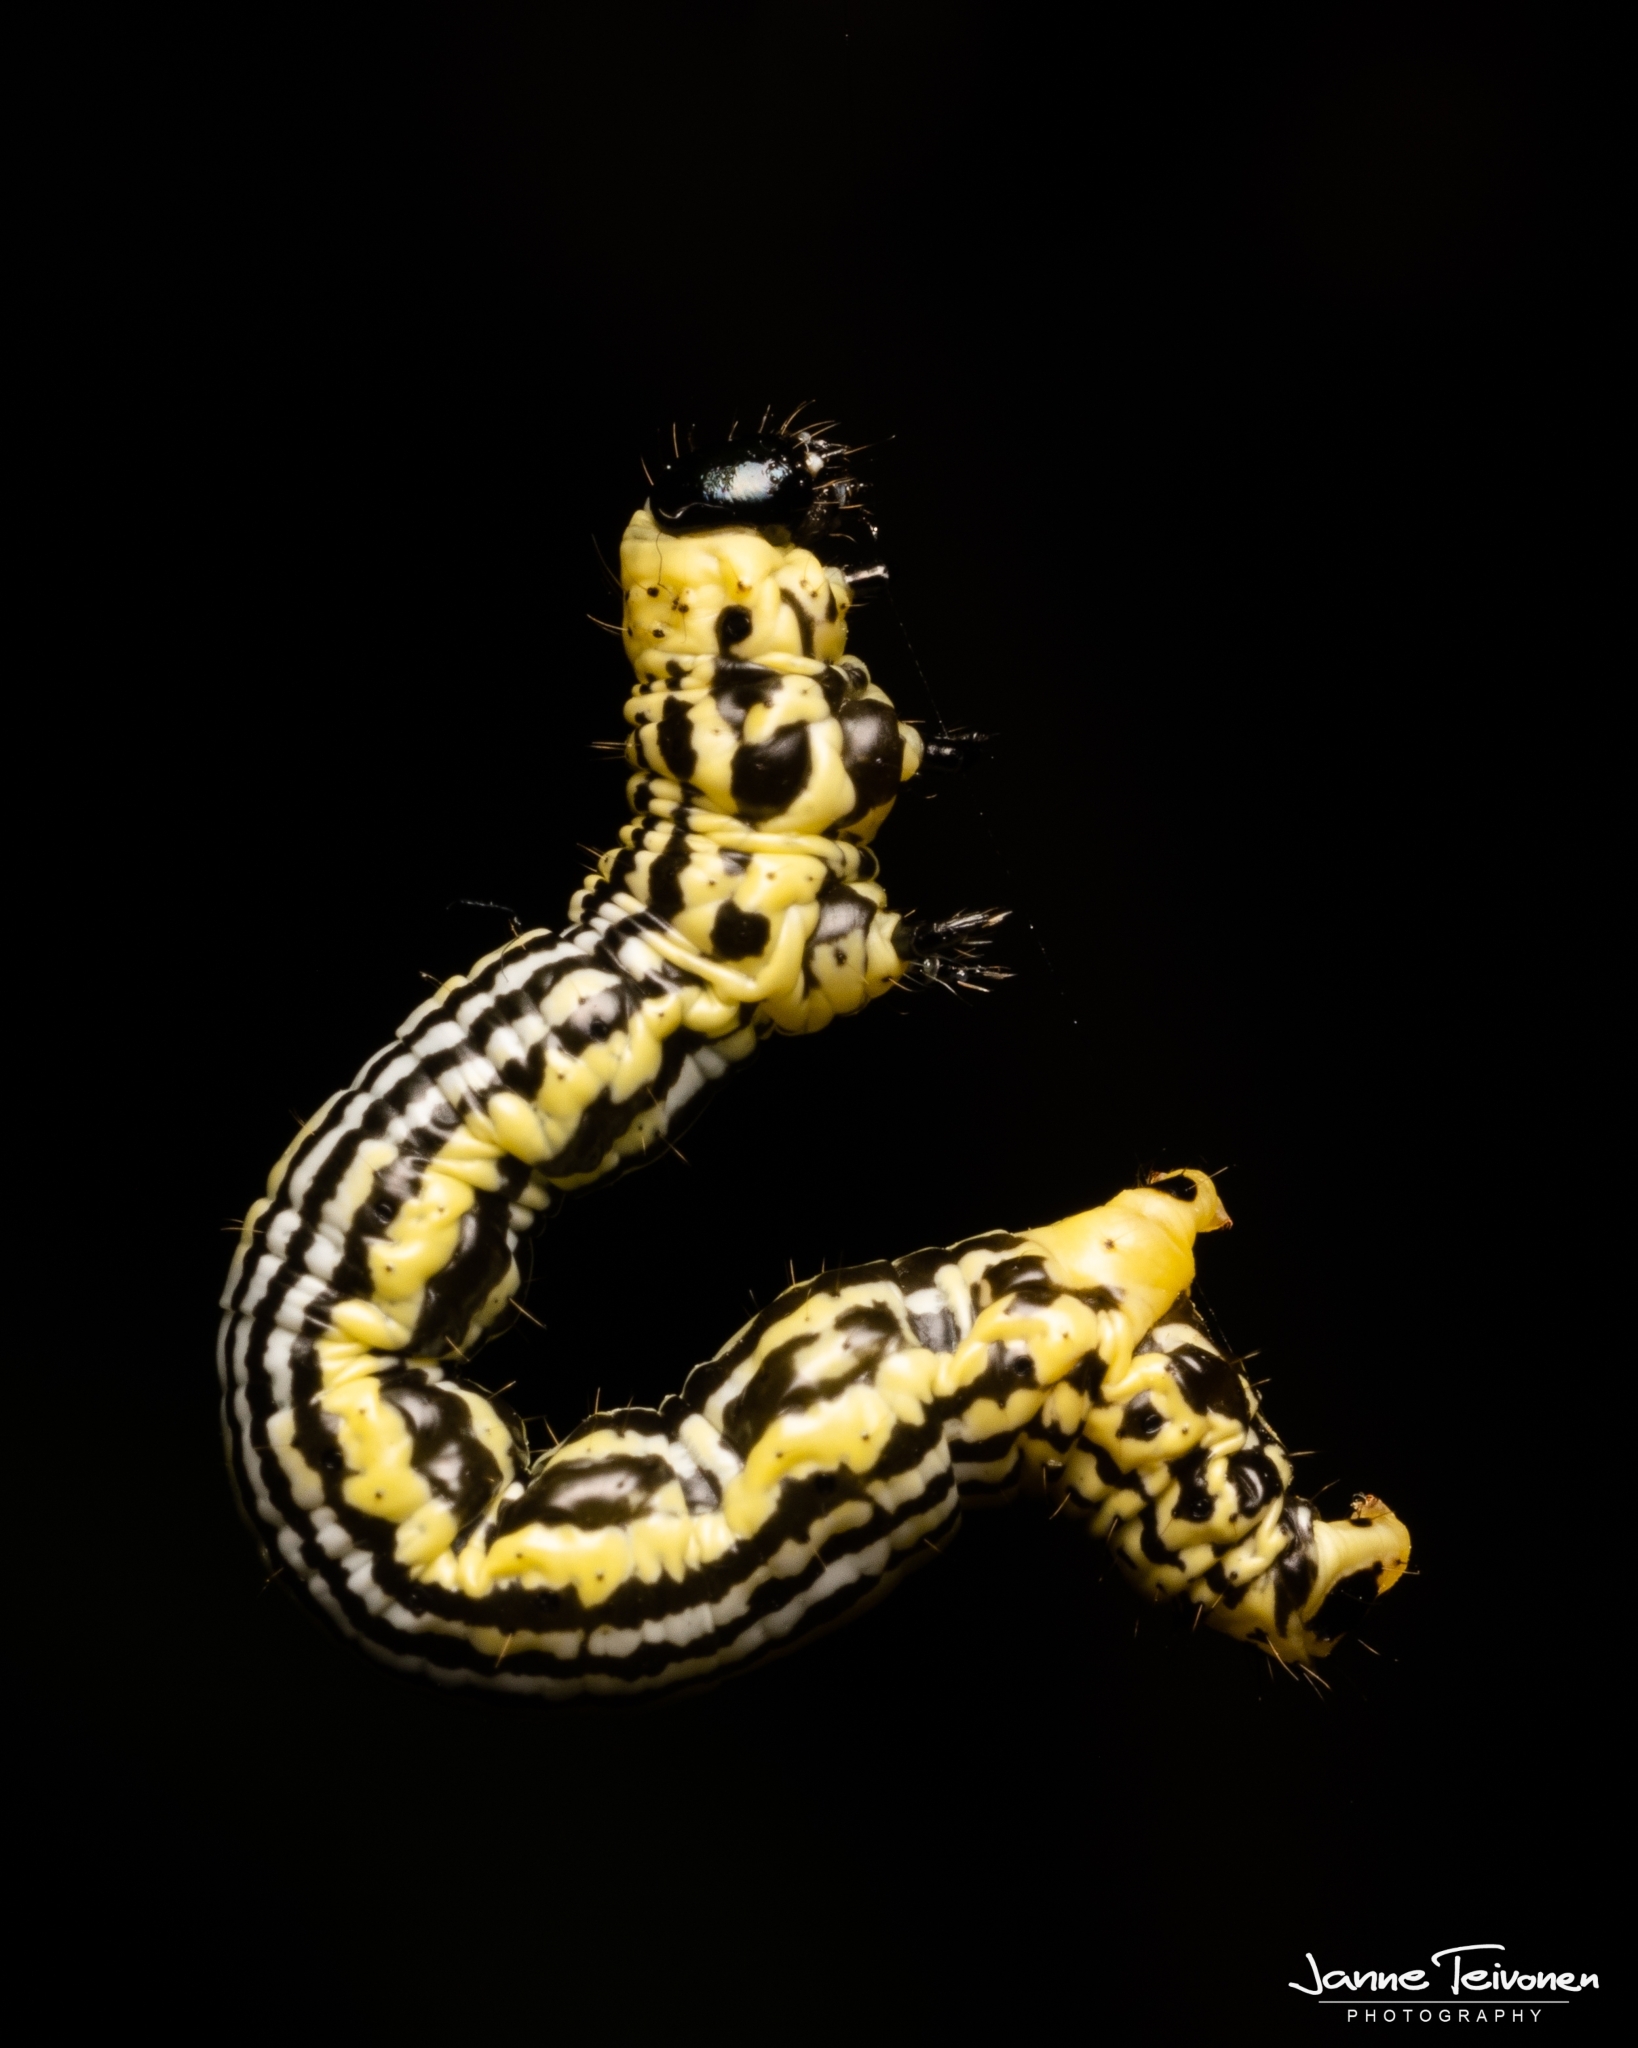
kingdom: Animalia
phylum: Arthropoda
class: Insecta
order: Lepidoptera
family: Geometridae
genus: Abraxas
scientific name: Abraxas sylvata
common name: Clouded magpie
